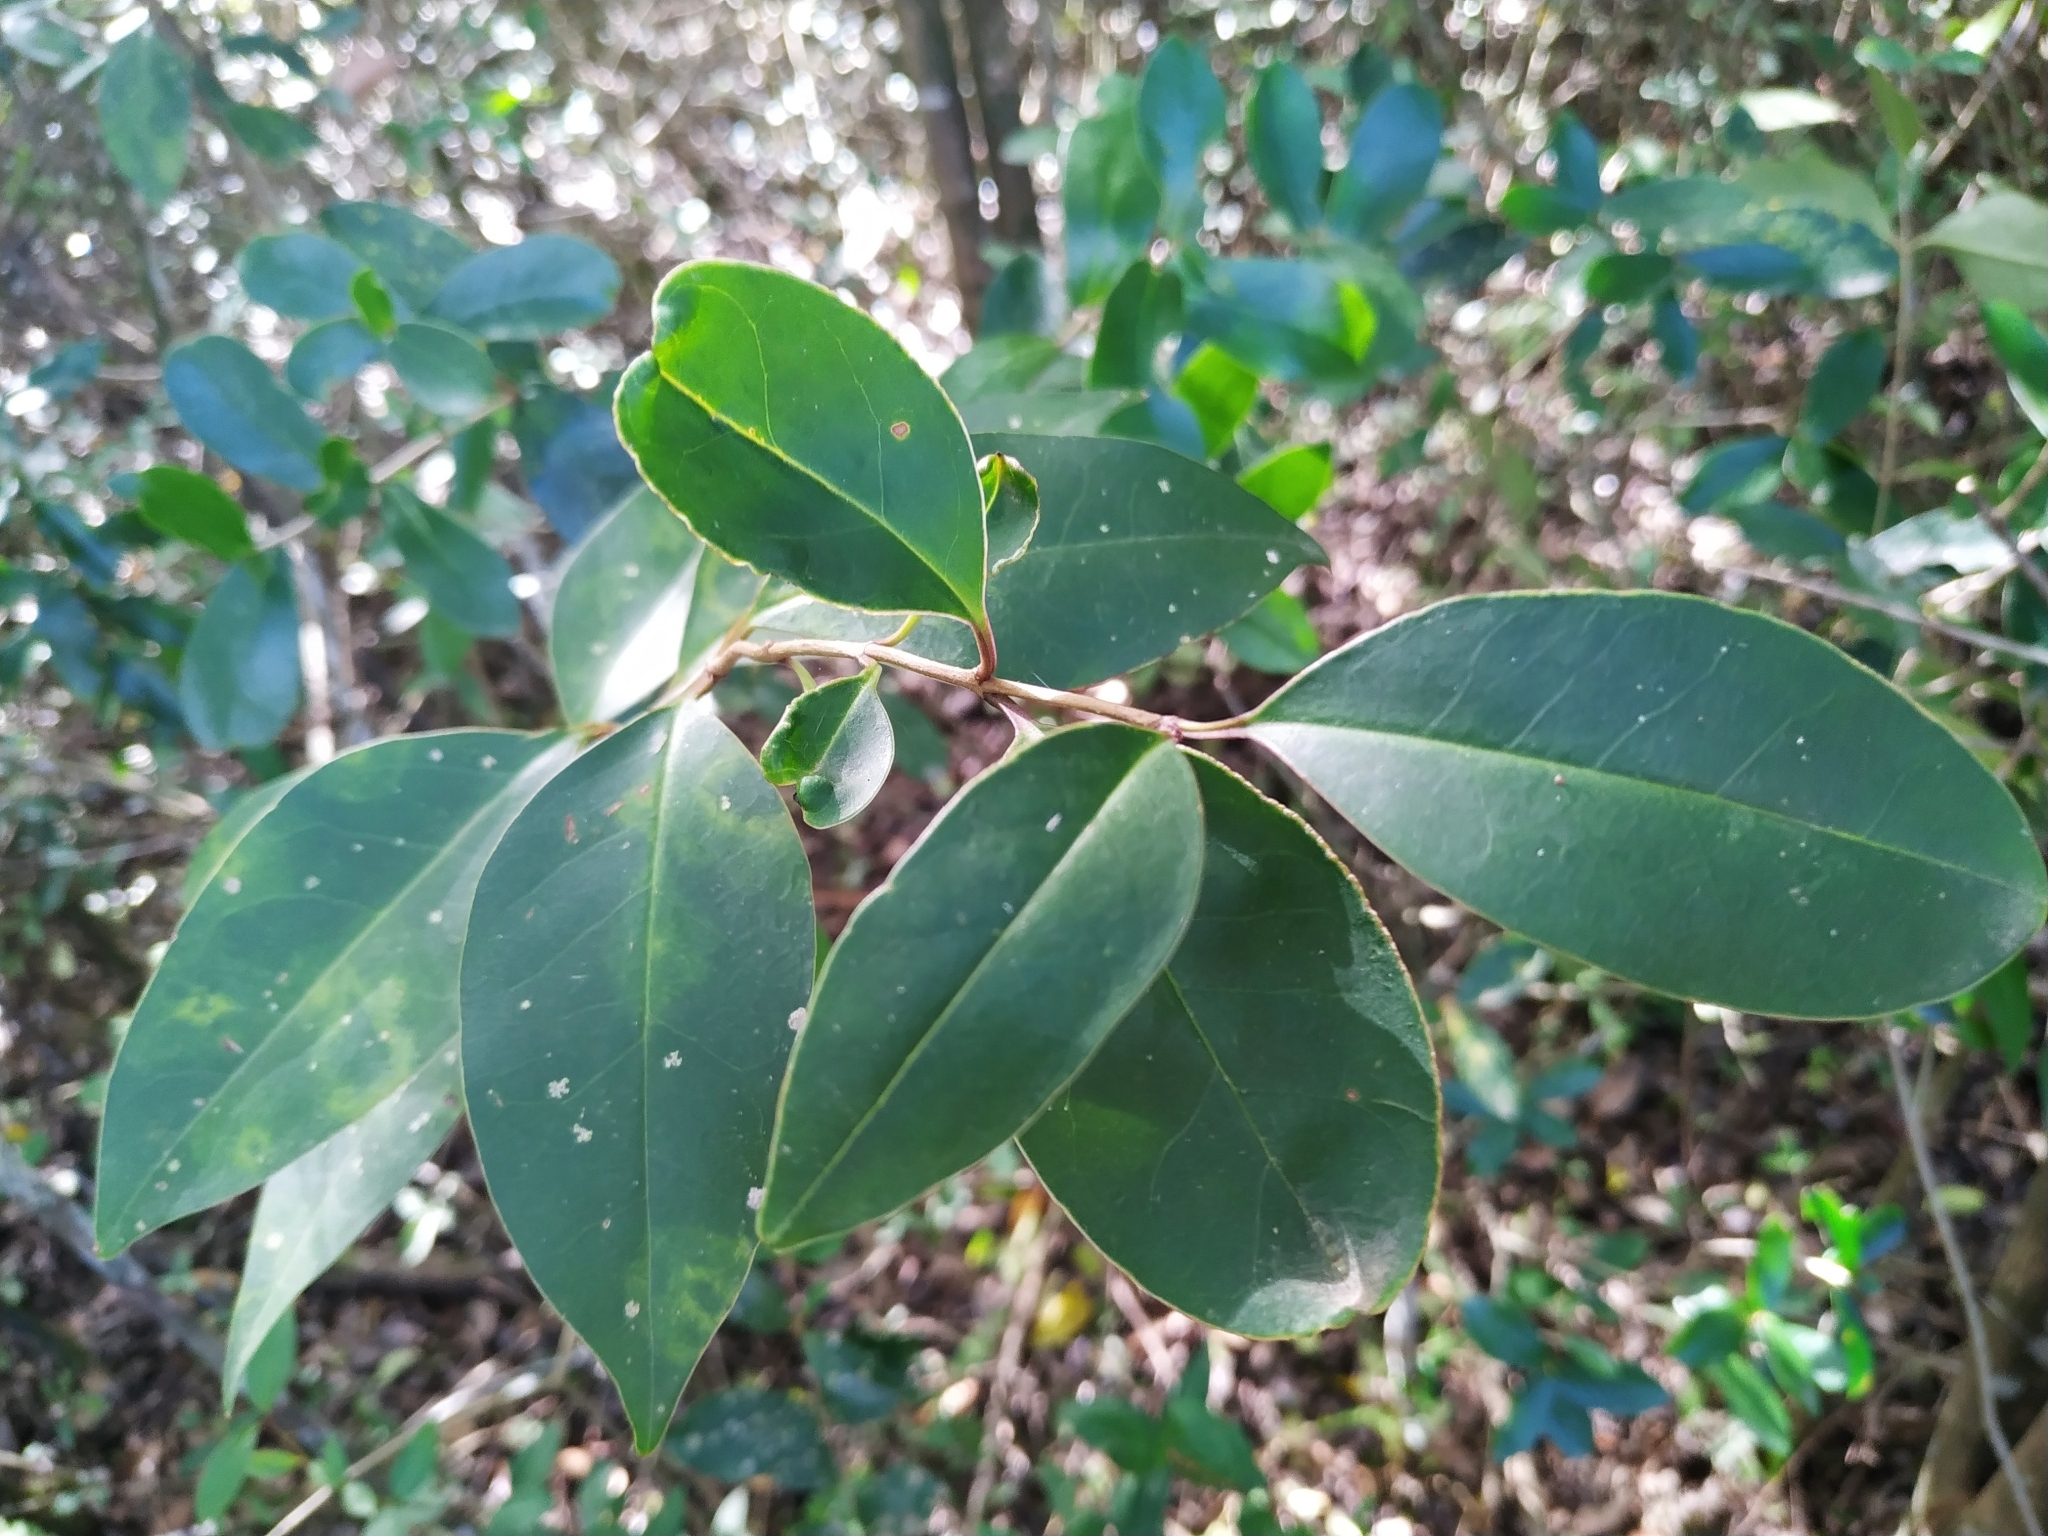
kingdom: Plantae
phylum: Tracheophyta
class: Magnoliopsida
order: Lamiales
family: Oleaceae
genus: Ligustrum
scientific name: Ligustrum lucidum
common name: Glossy privet
